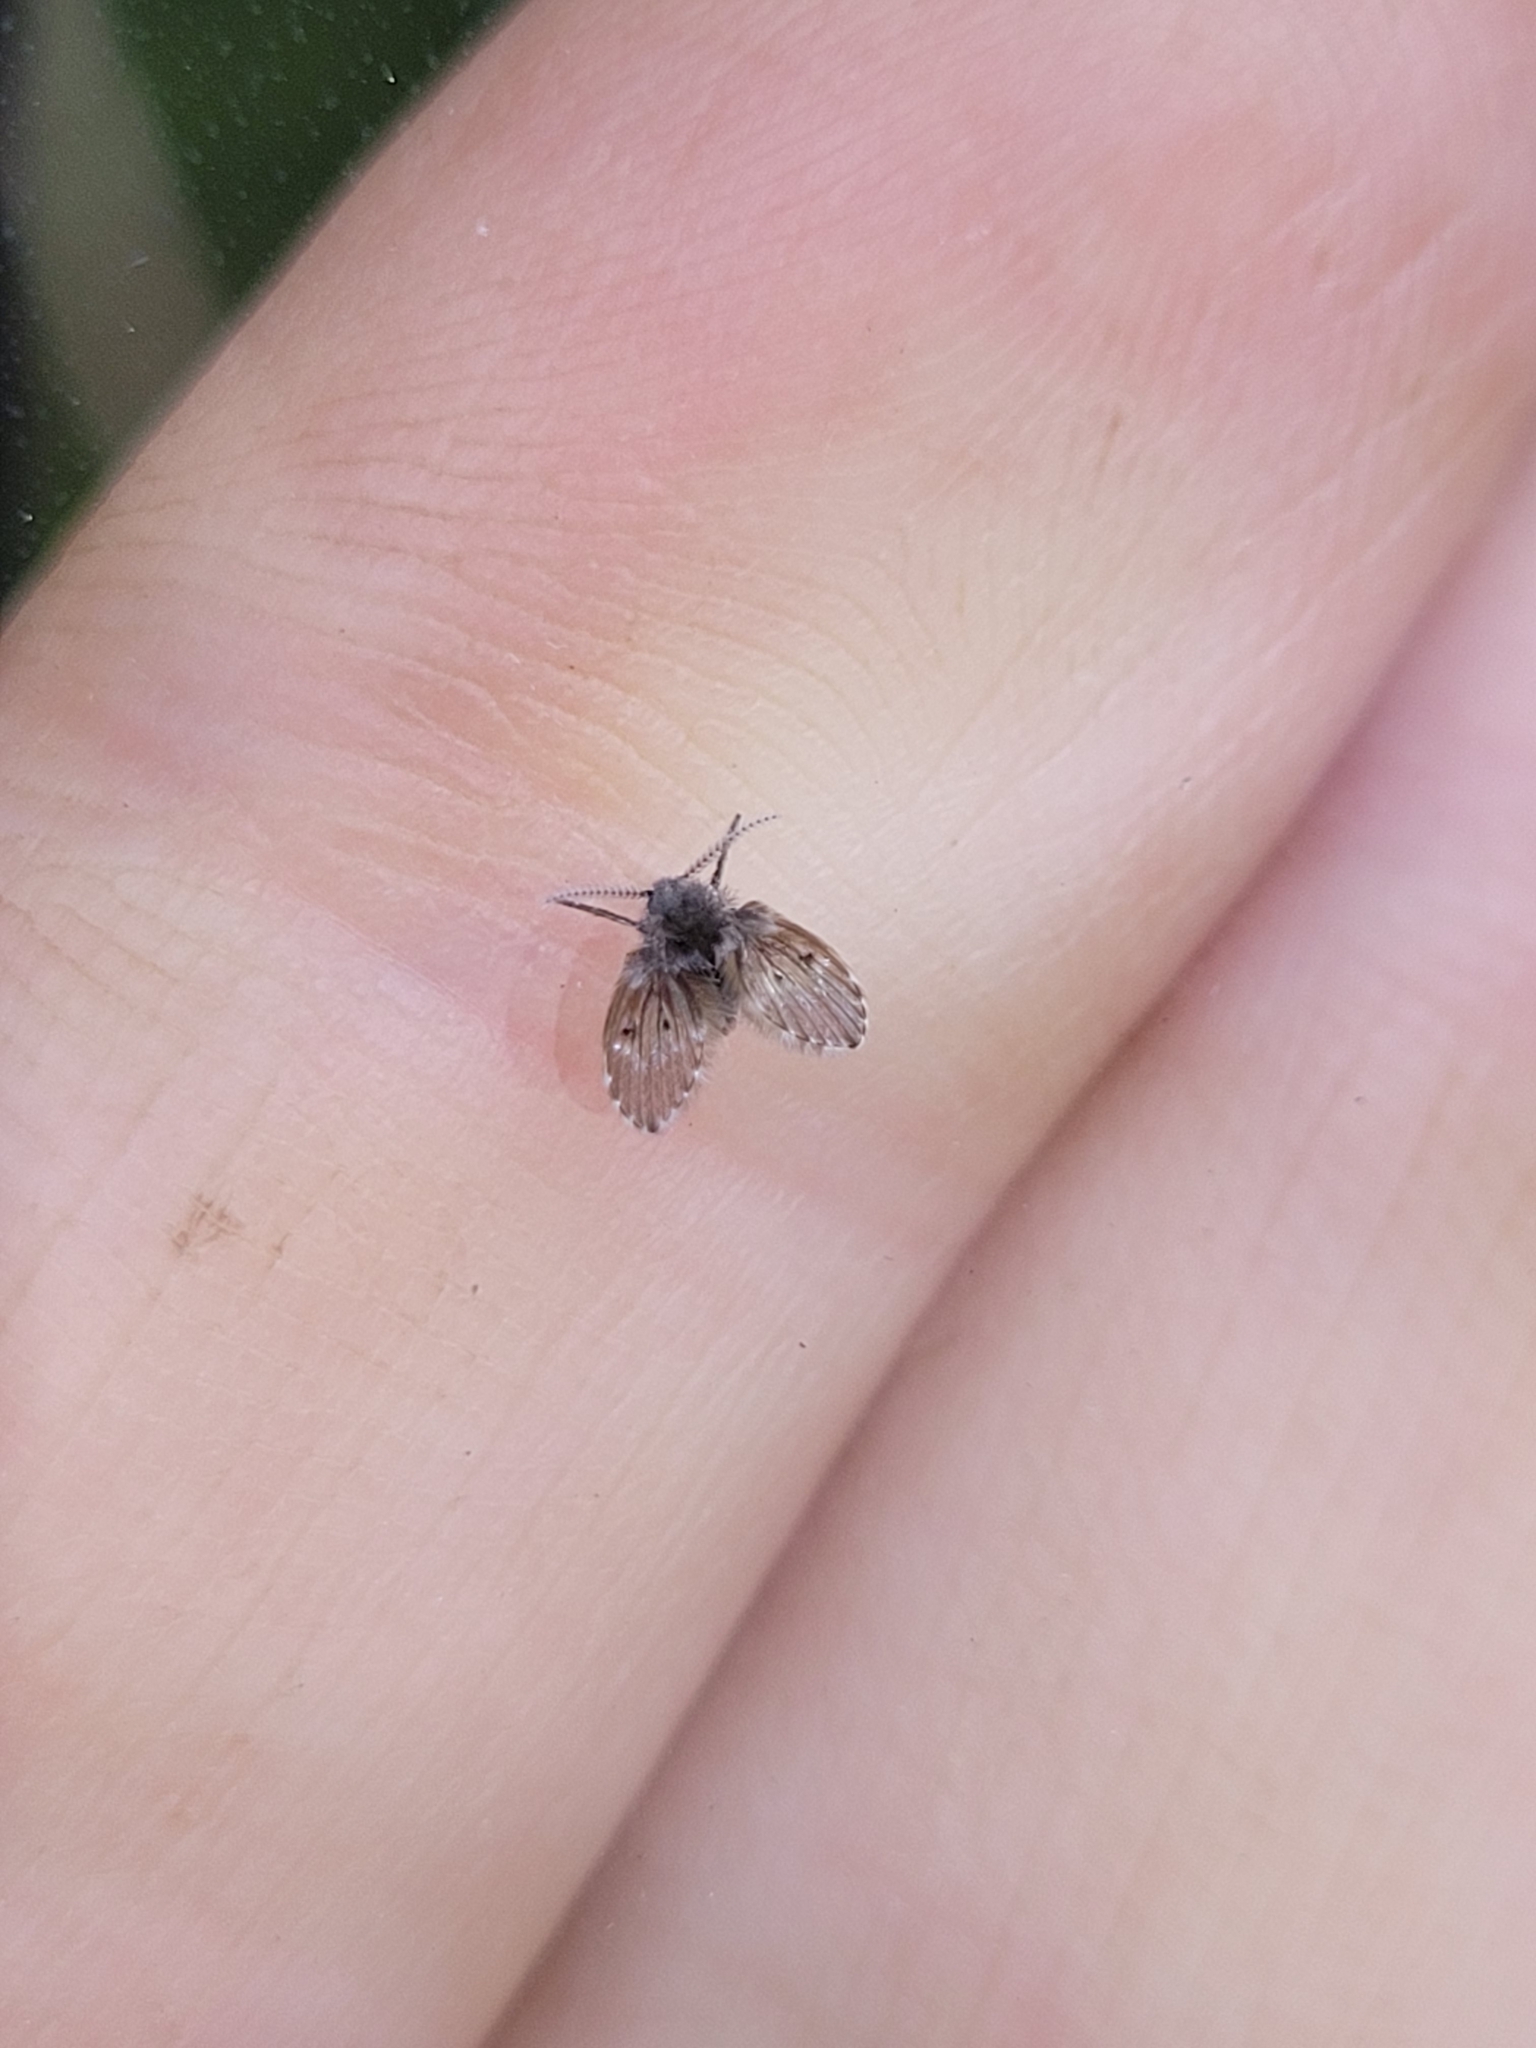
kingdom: Animalia
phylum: Arthropoda
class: Insecta
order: Diptera
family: Psychodidae
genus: Clogmia
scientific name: Clogmia albipunctatus
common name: White-spotted moth fly
